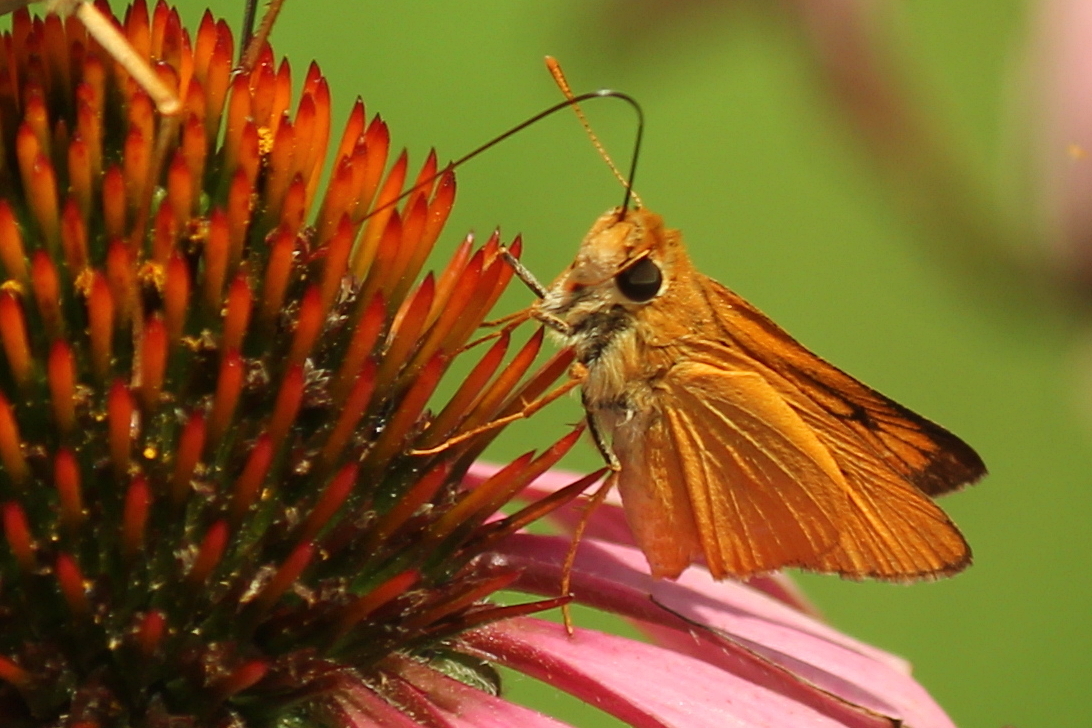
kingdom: Animalia
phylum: Arthropoda
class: Insecta
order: Lepidoptera
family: Hesperiidae
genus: Atrytone
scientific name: Atrytone delaware
